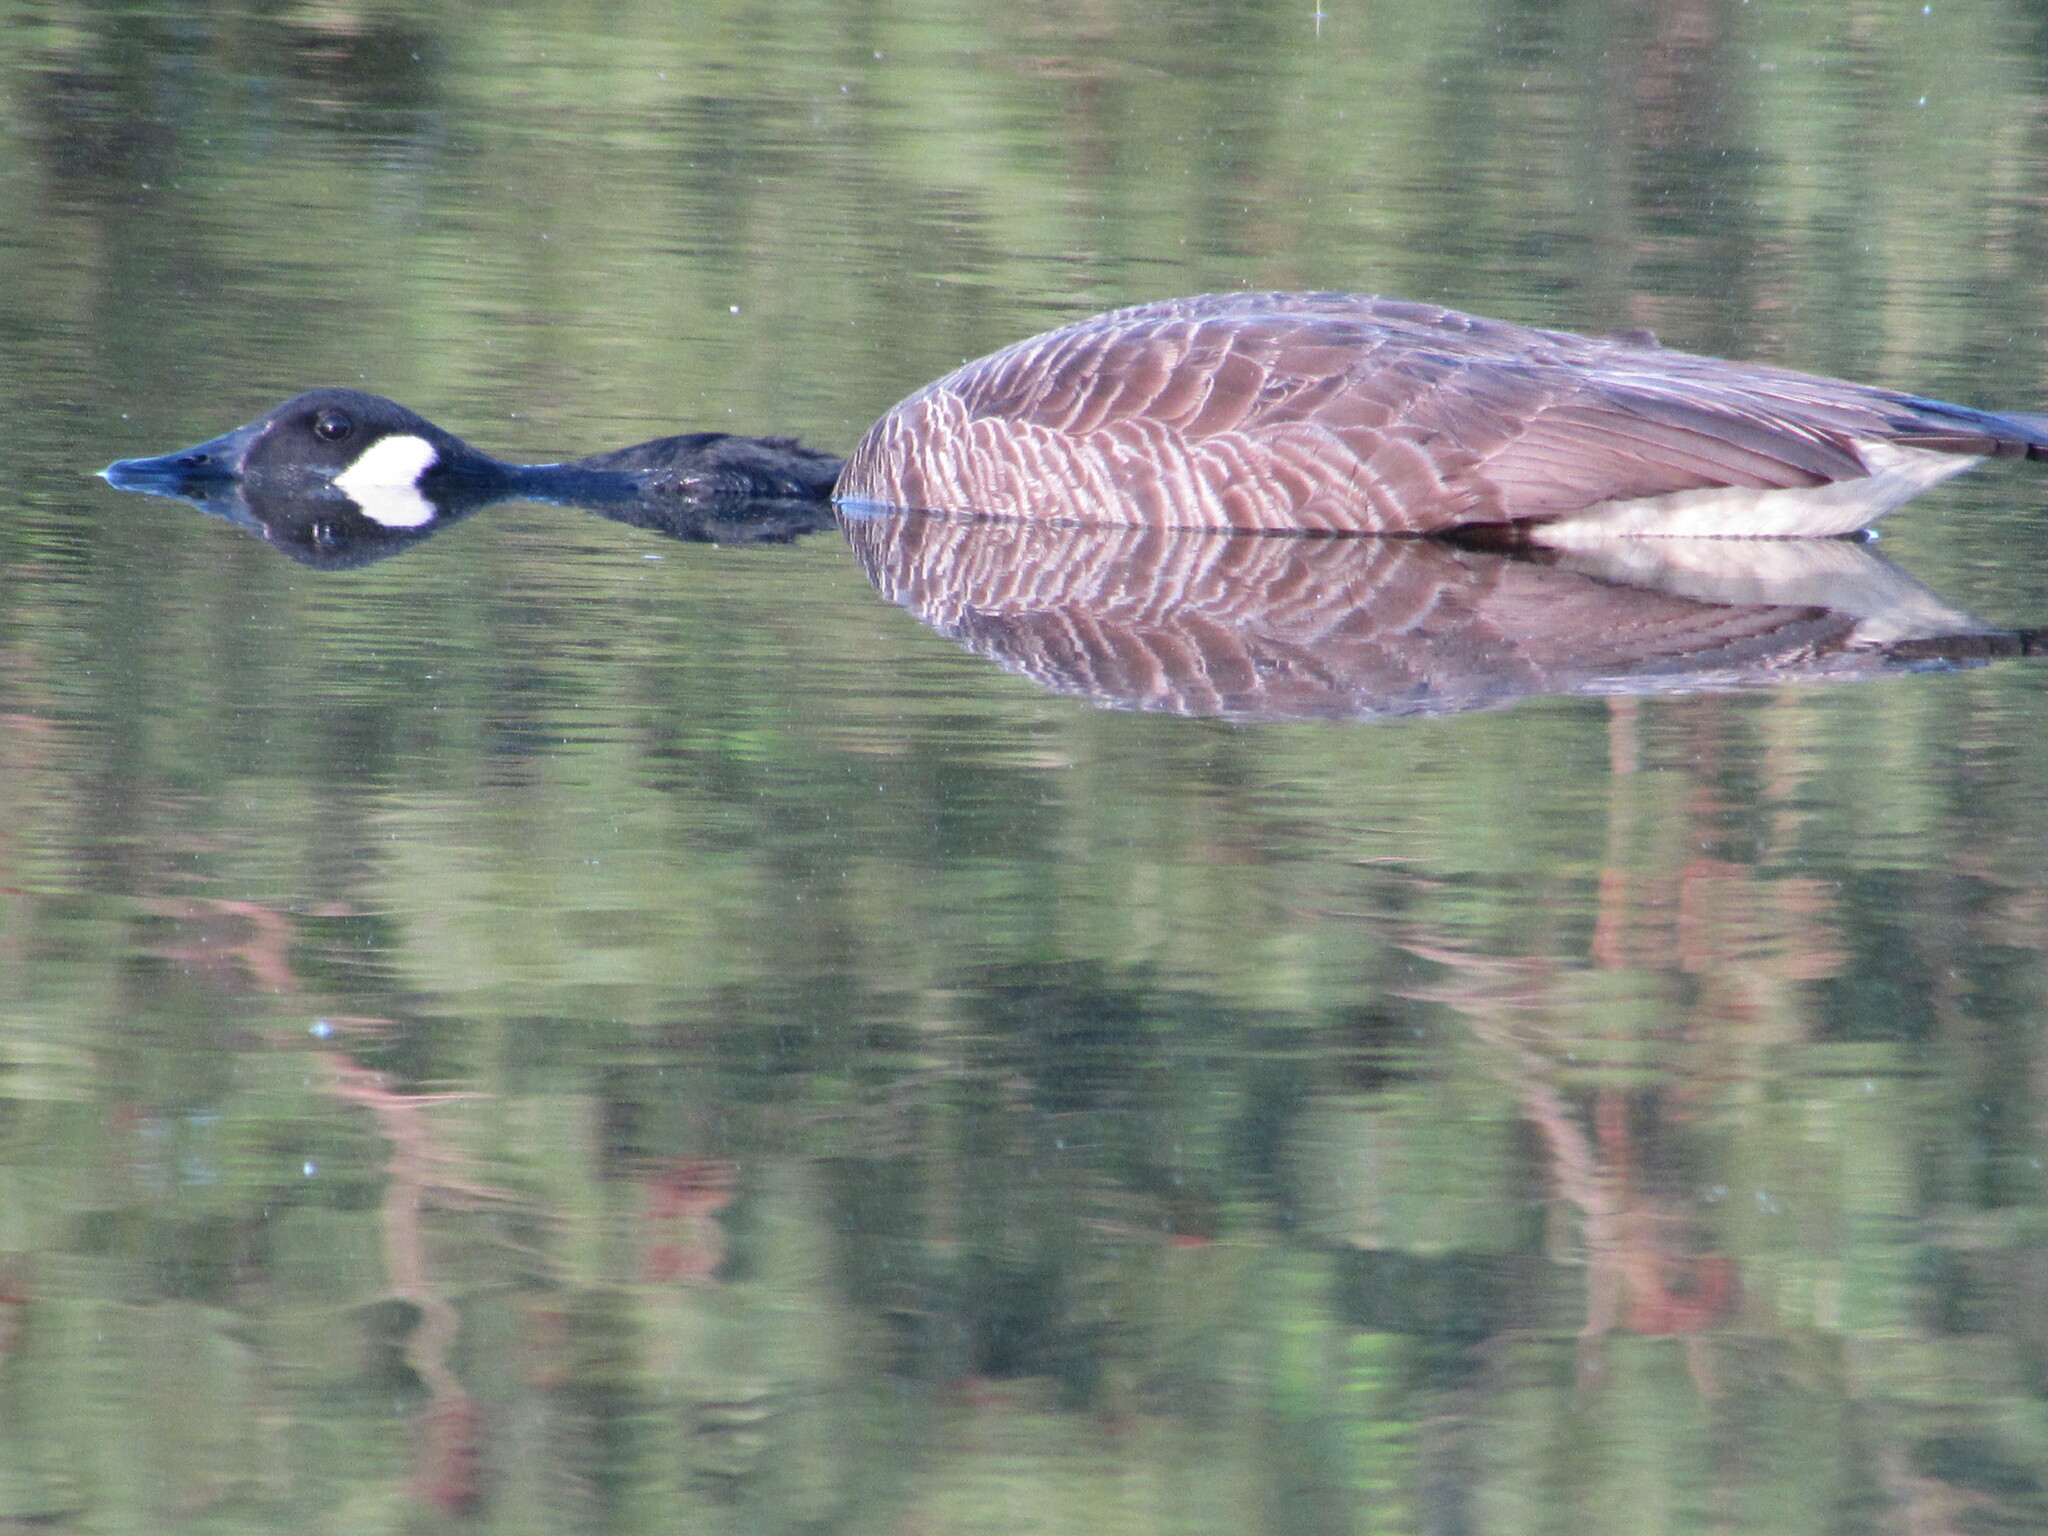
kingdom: Animalia
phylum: Chordata
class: Aves
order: Anseriformes
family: Anatidae
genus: Branta
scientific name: Branta canadensis
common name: Canada goose
